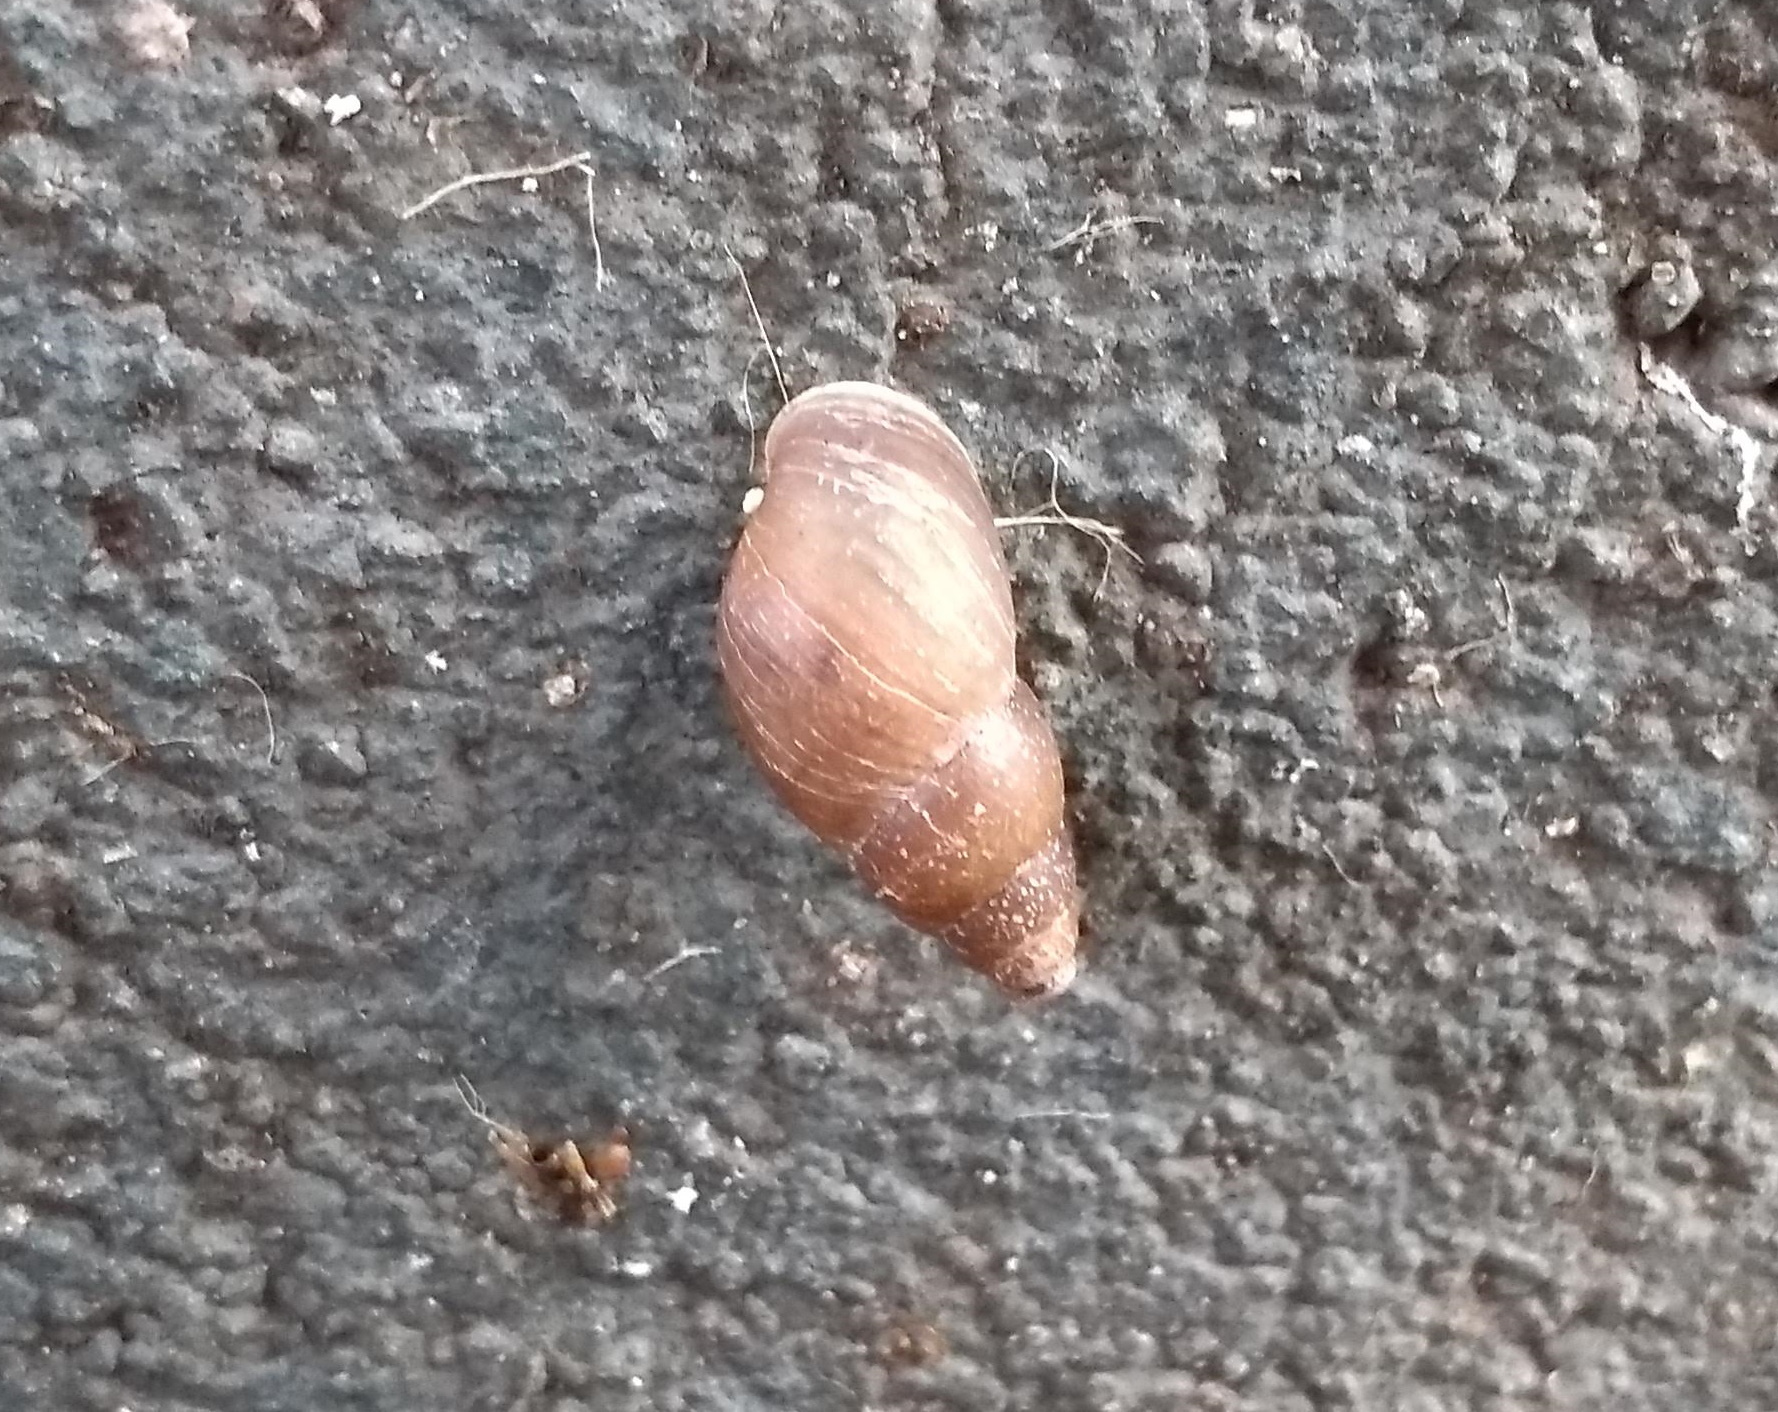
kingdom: Animalia
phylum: Mollusca
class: Gastropoda
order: Stylommatophora
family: Bulimulidae
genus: Bulimulus
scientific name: Bulimulus tenuissimus
